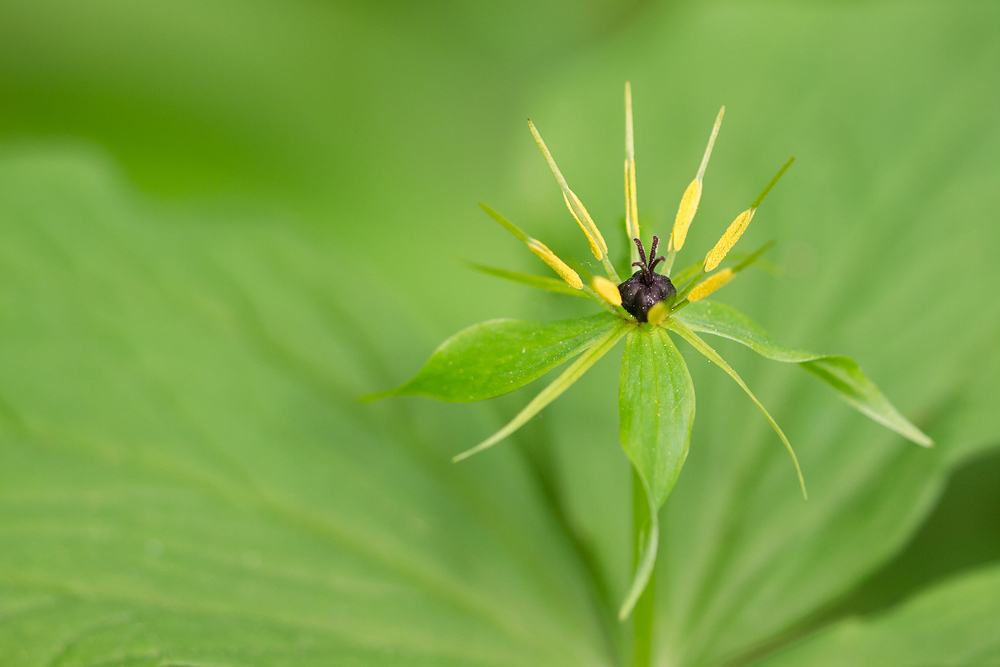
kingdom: Plantae
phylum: Tracheophyta
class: Liliopsida
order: Liliales
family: Melanthiaceae
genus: Paris
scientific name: Paris quadrifolia
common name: Herb-paris
